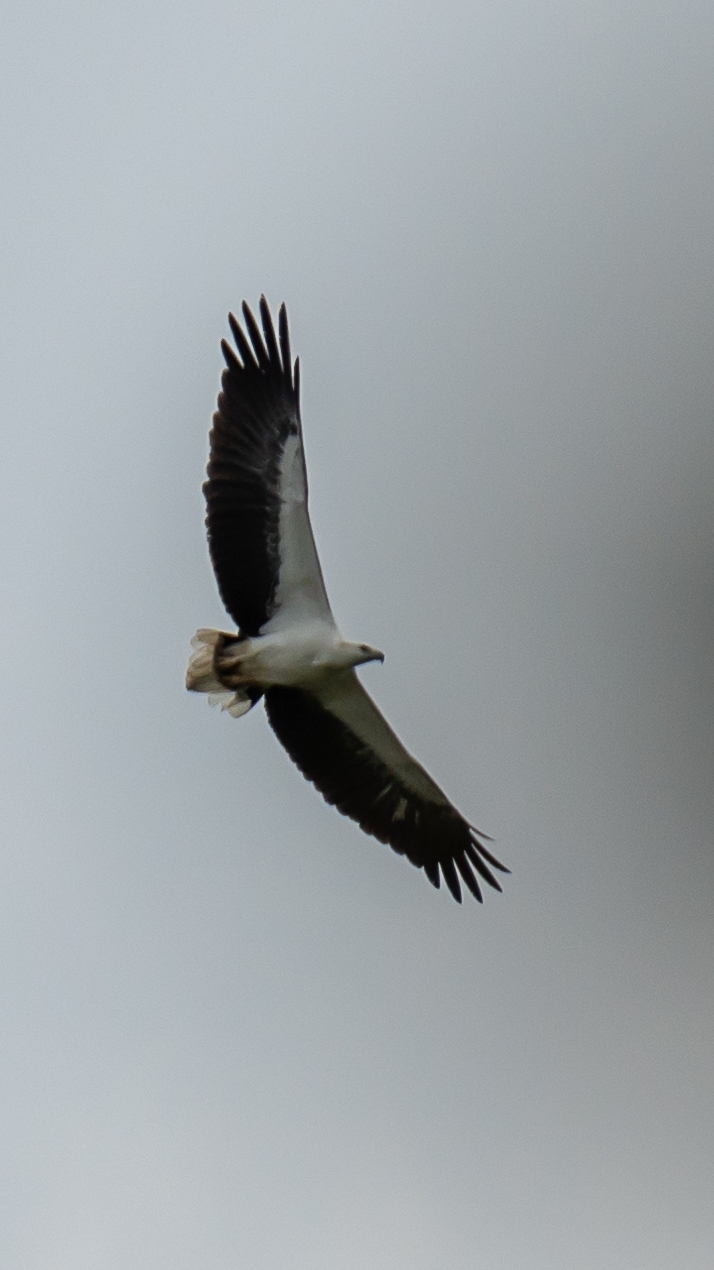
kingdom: Animalia
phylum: Chordata
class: Aves
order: Accipitriformes
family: Accipitridae
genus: Haliaeetus
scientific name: Haliaeetus leucogaster
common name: White-bellied sea eagle
